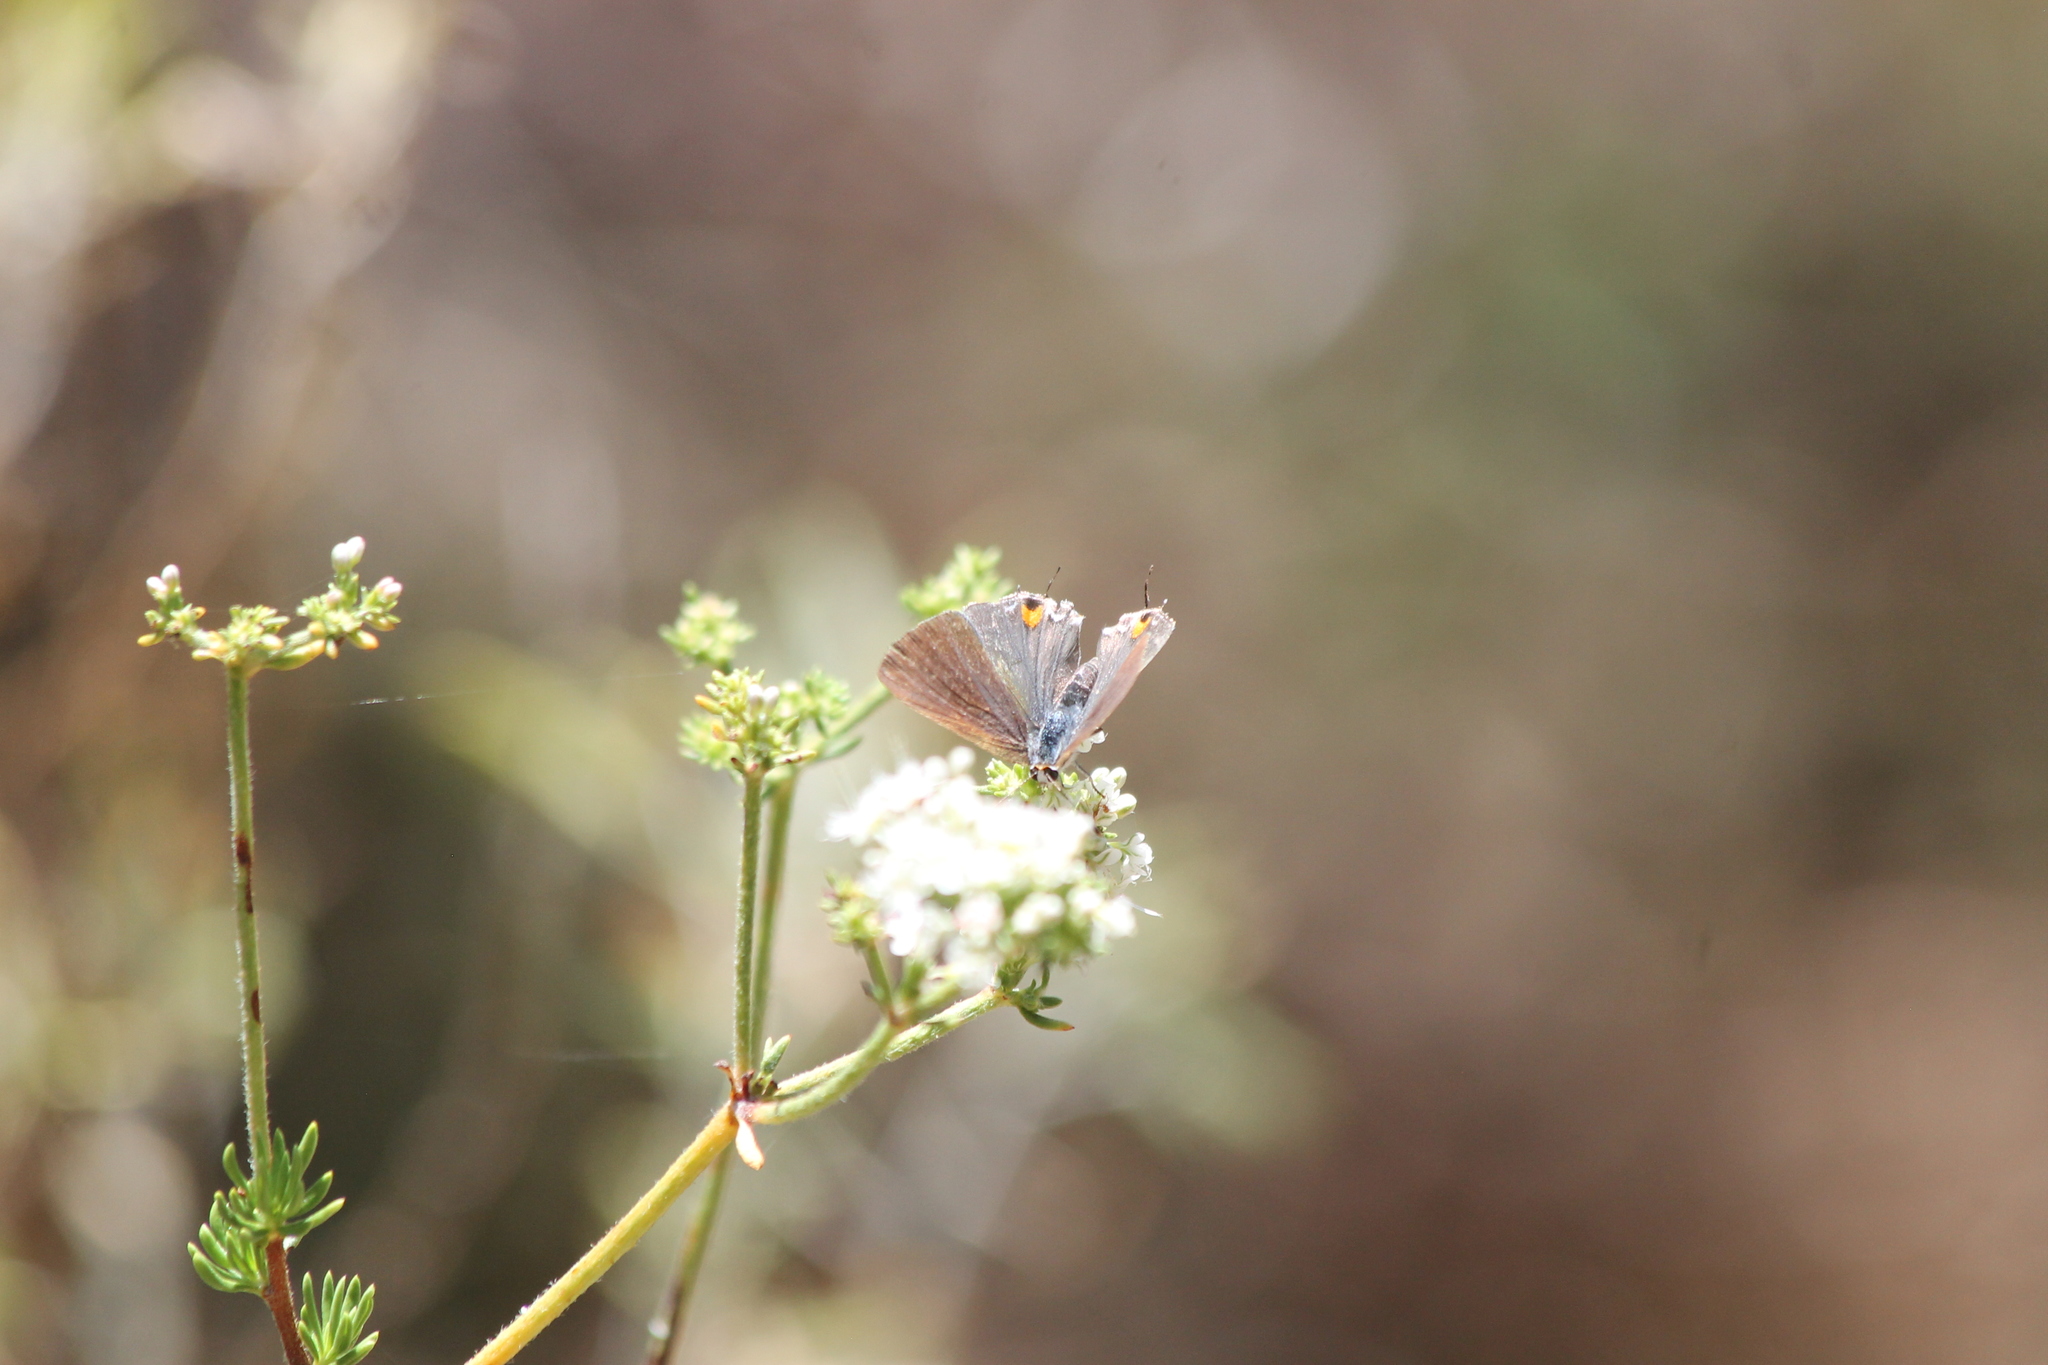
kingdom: Animalia
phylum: Arthropoda
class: Insecta
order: Lepidoptera
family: Lycaenidae
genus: Strymon
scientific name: Strymon melinus
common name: Gray hairstreak
